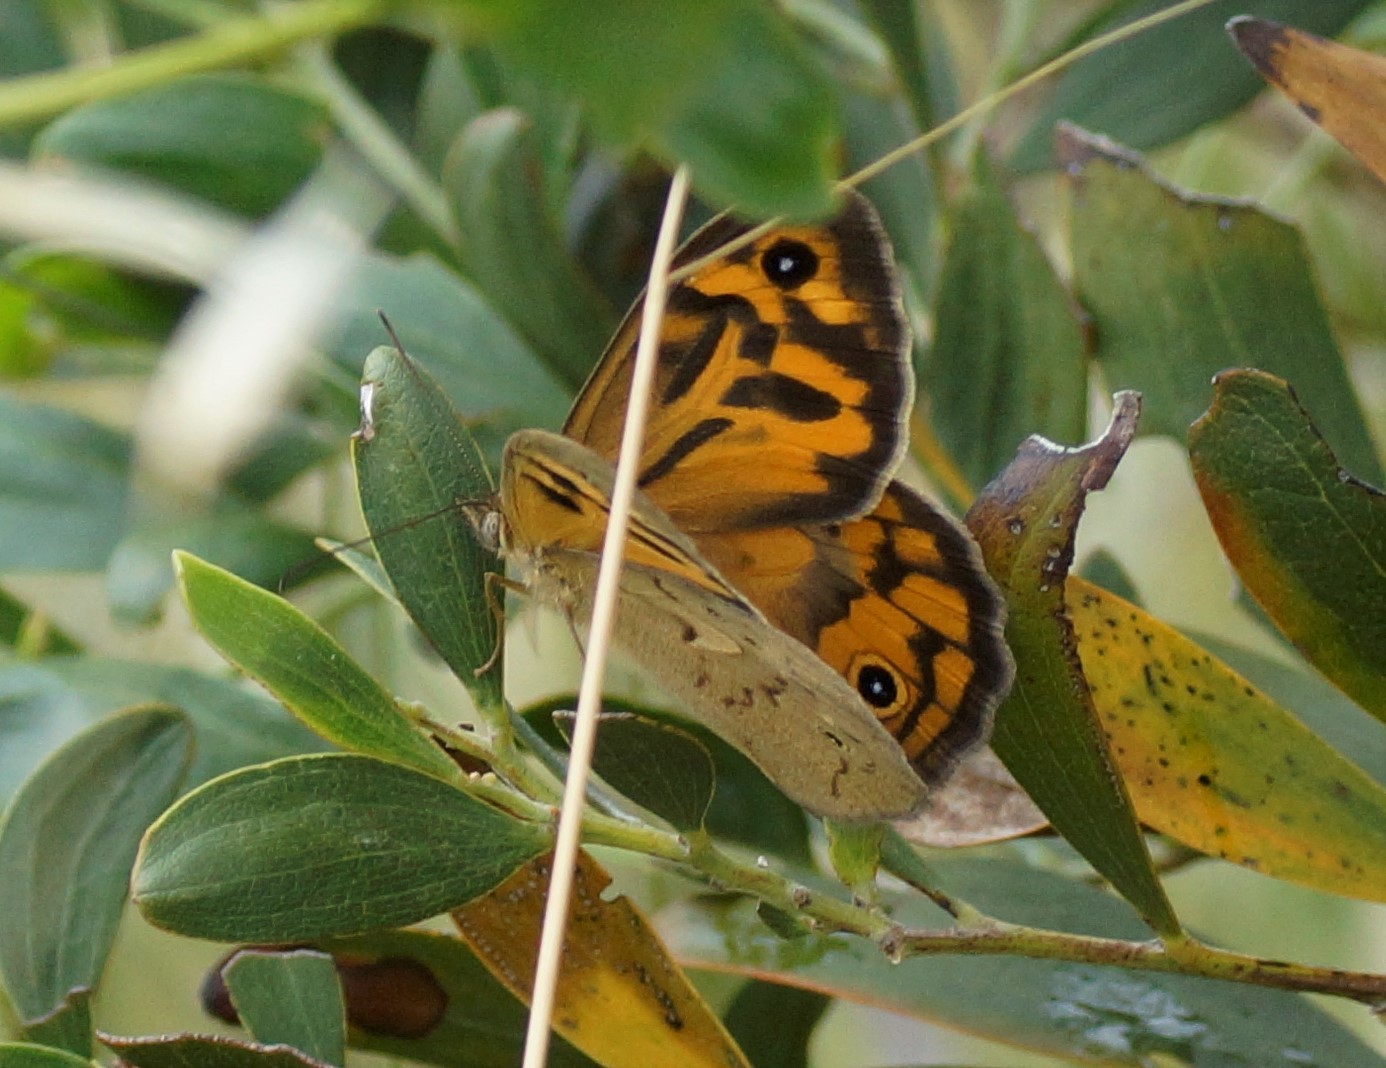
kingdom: Animalia
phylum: Arthropoda
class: Insecta
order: Lepidoptera
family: Nymphalidae
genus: Heteronympha
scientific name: Heteronympha merope
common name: Common brown
